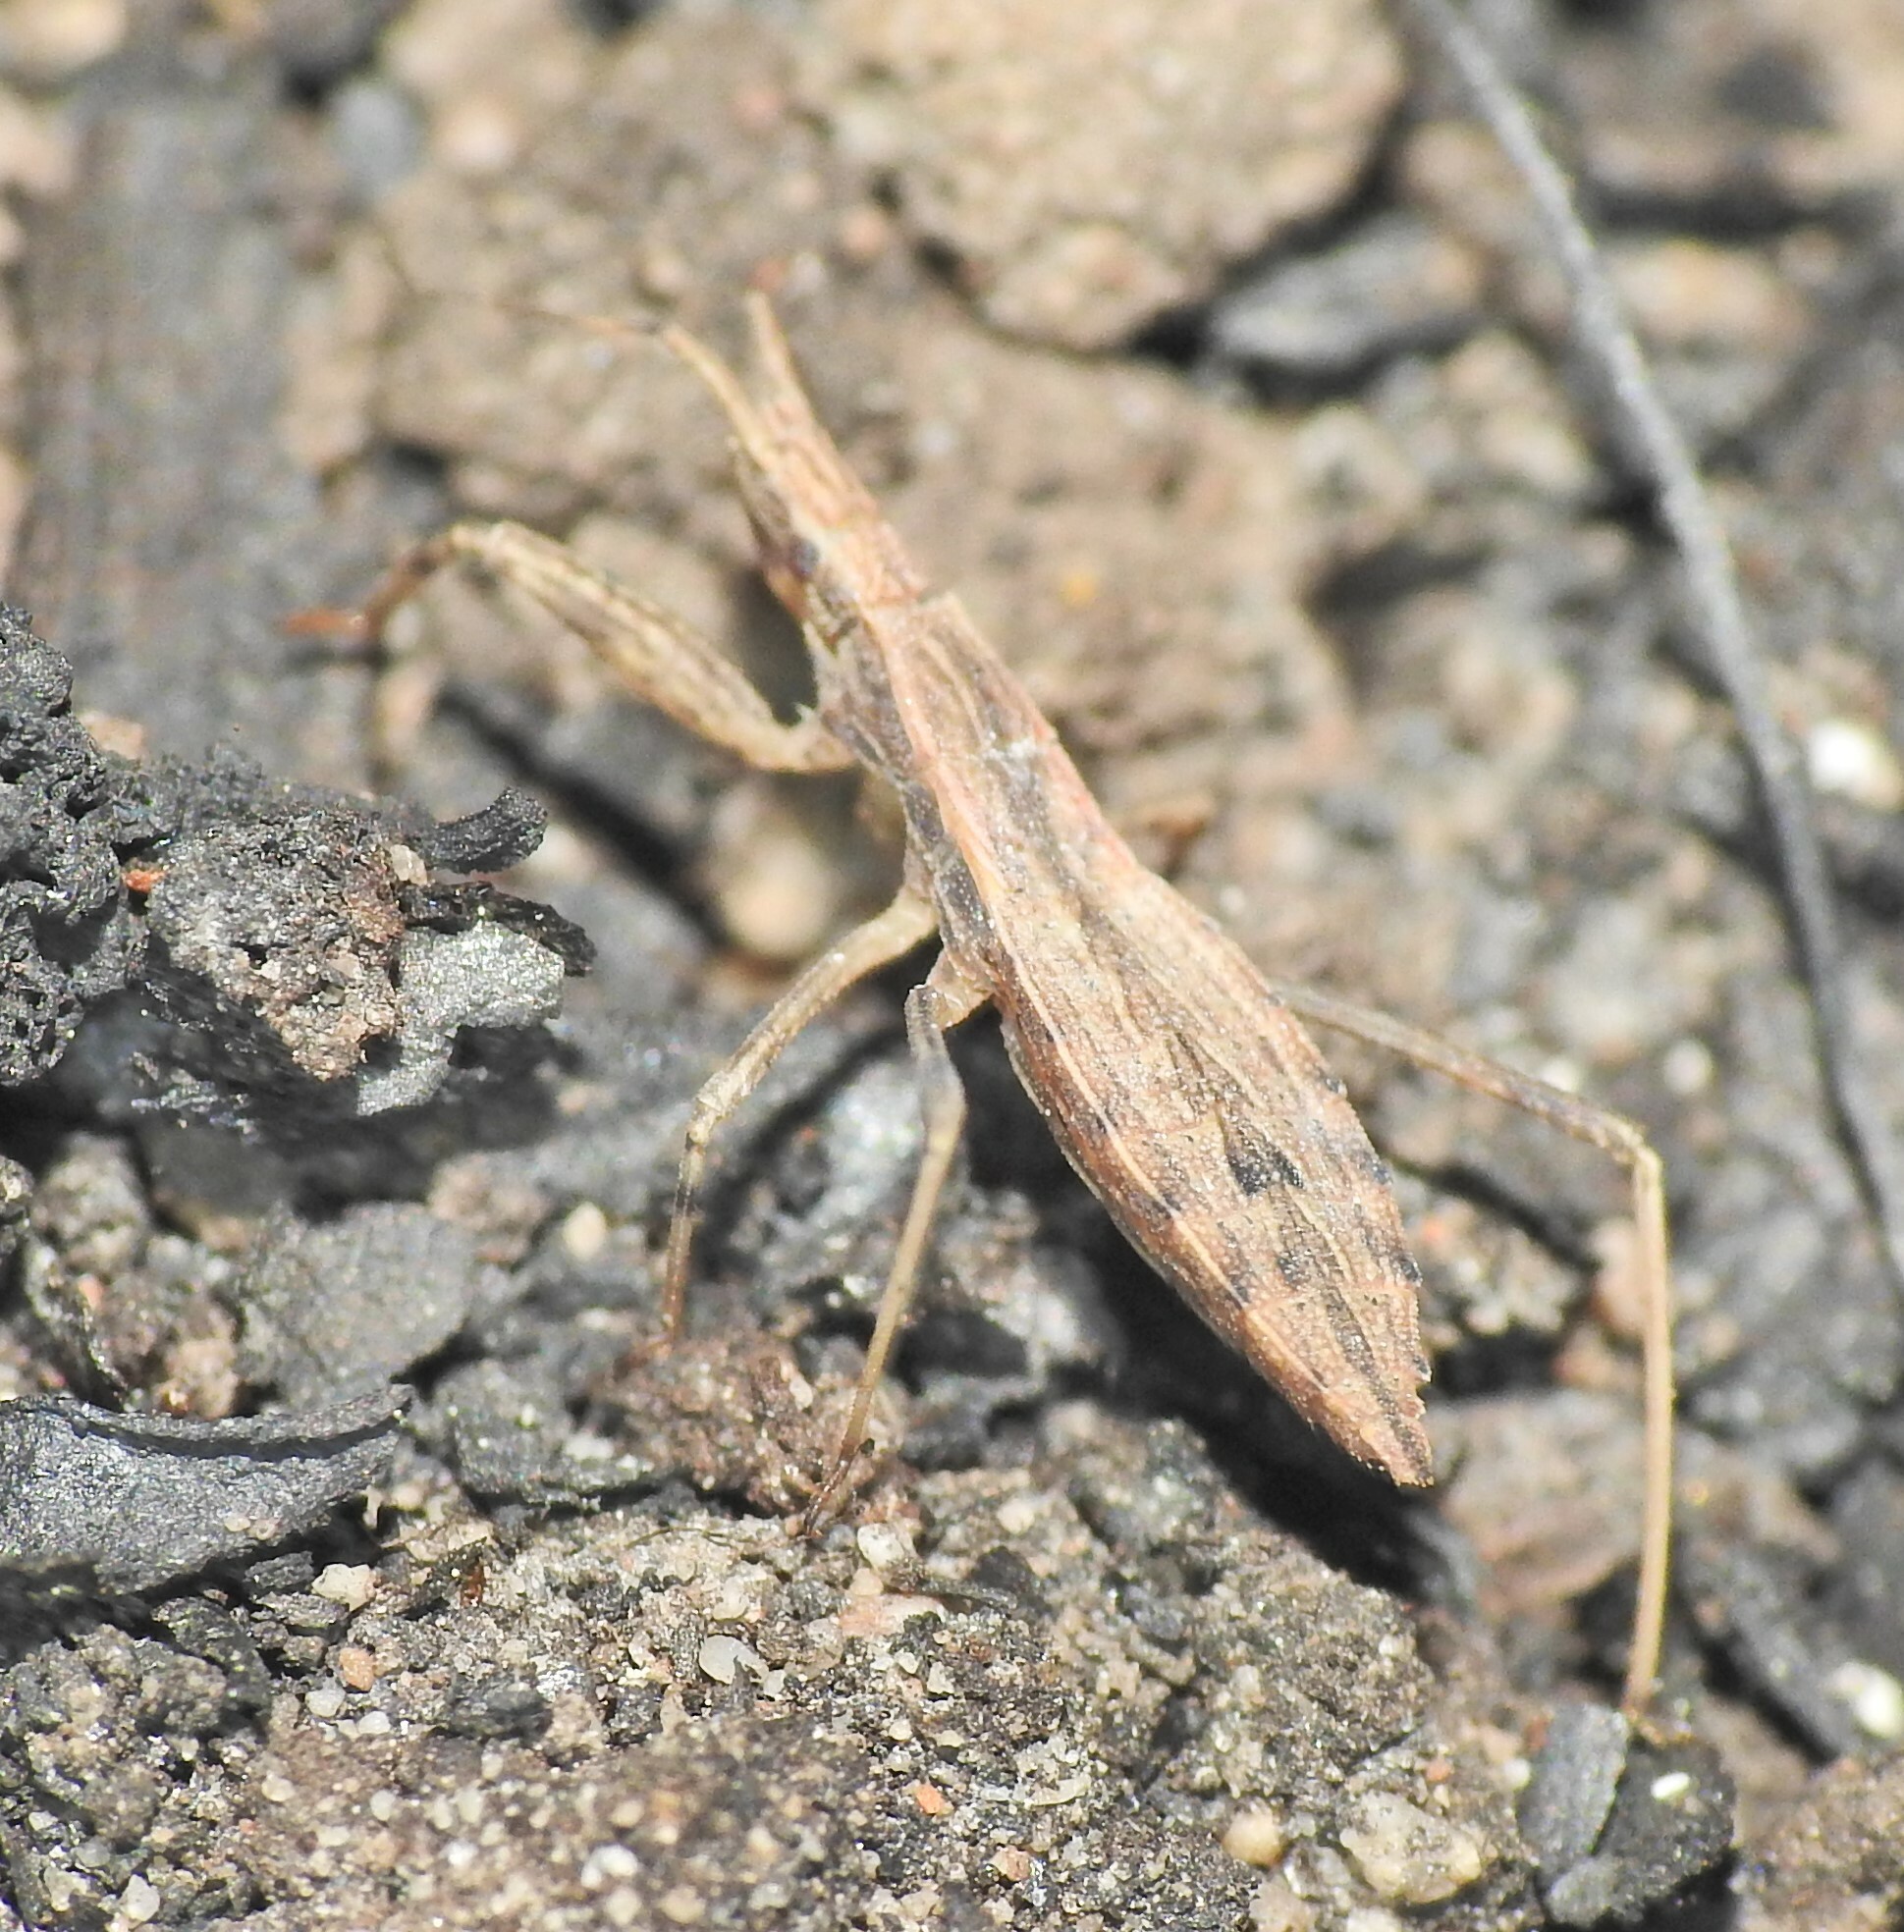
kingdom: Animalia
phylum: Arthropoda
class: Insecta
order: Hemiptera
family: Reduviidae
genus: Sastrapada
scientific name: Sastrapada australica
